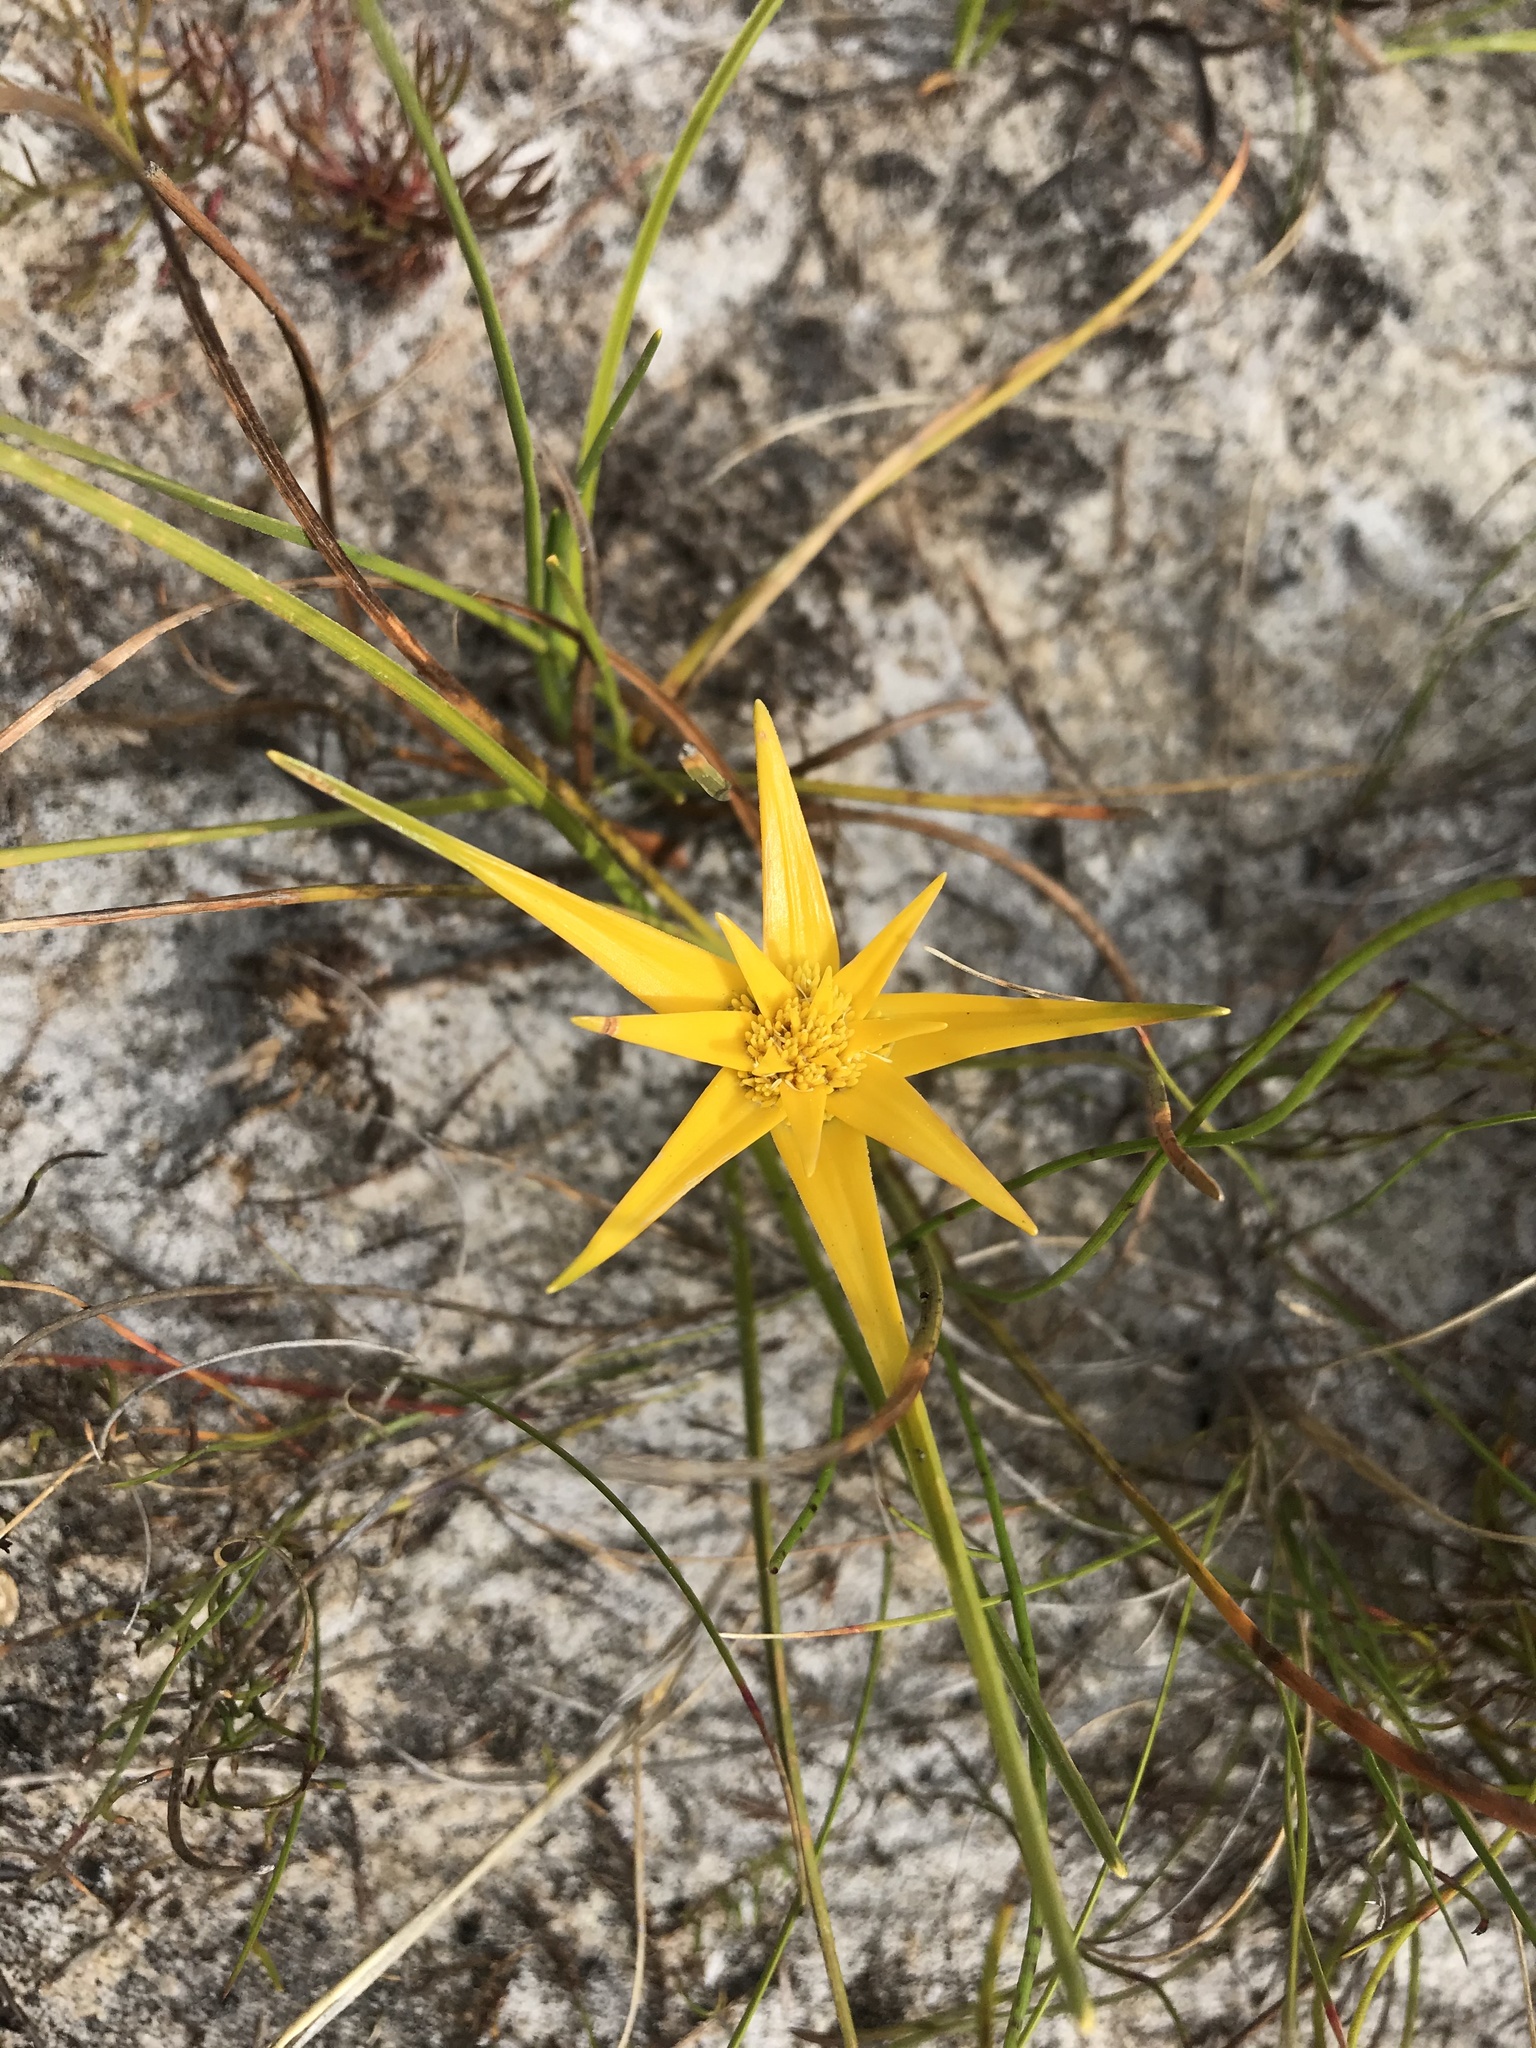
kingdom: Plantae
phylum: Tracheophyta
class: Liliopsida
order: Poales
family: Cyperaceae
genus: Ficinia
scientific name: Ficinia radiata
